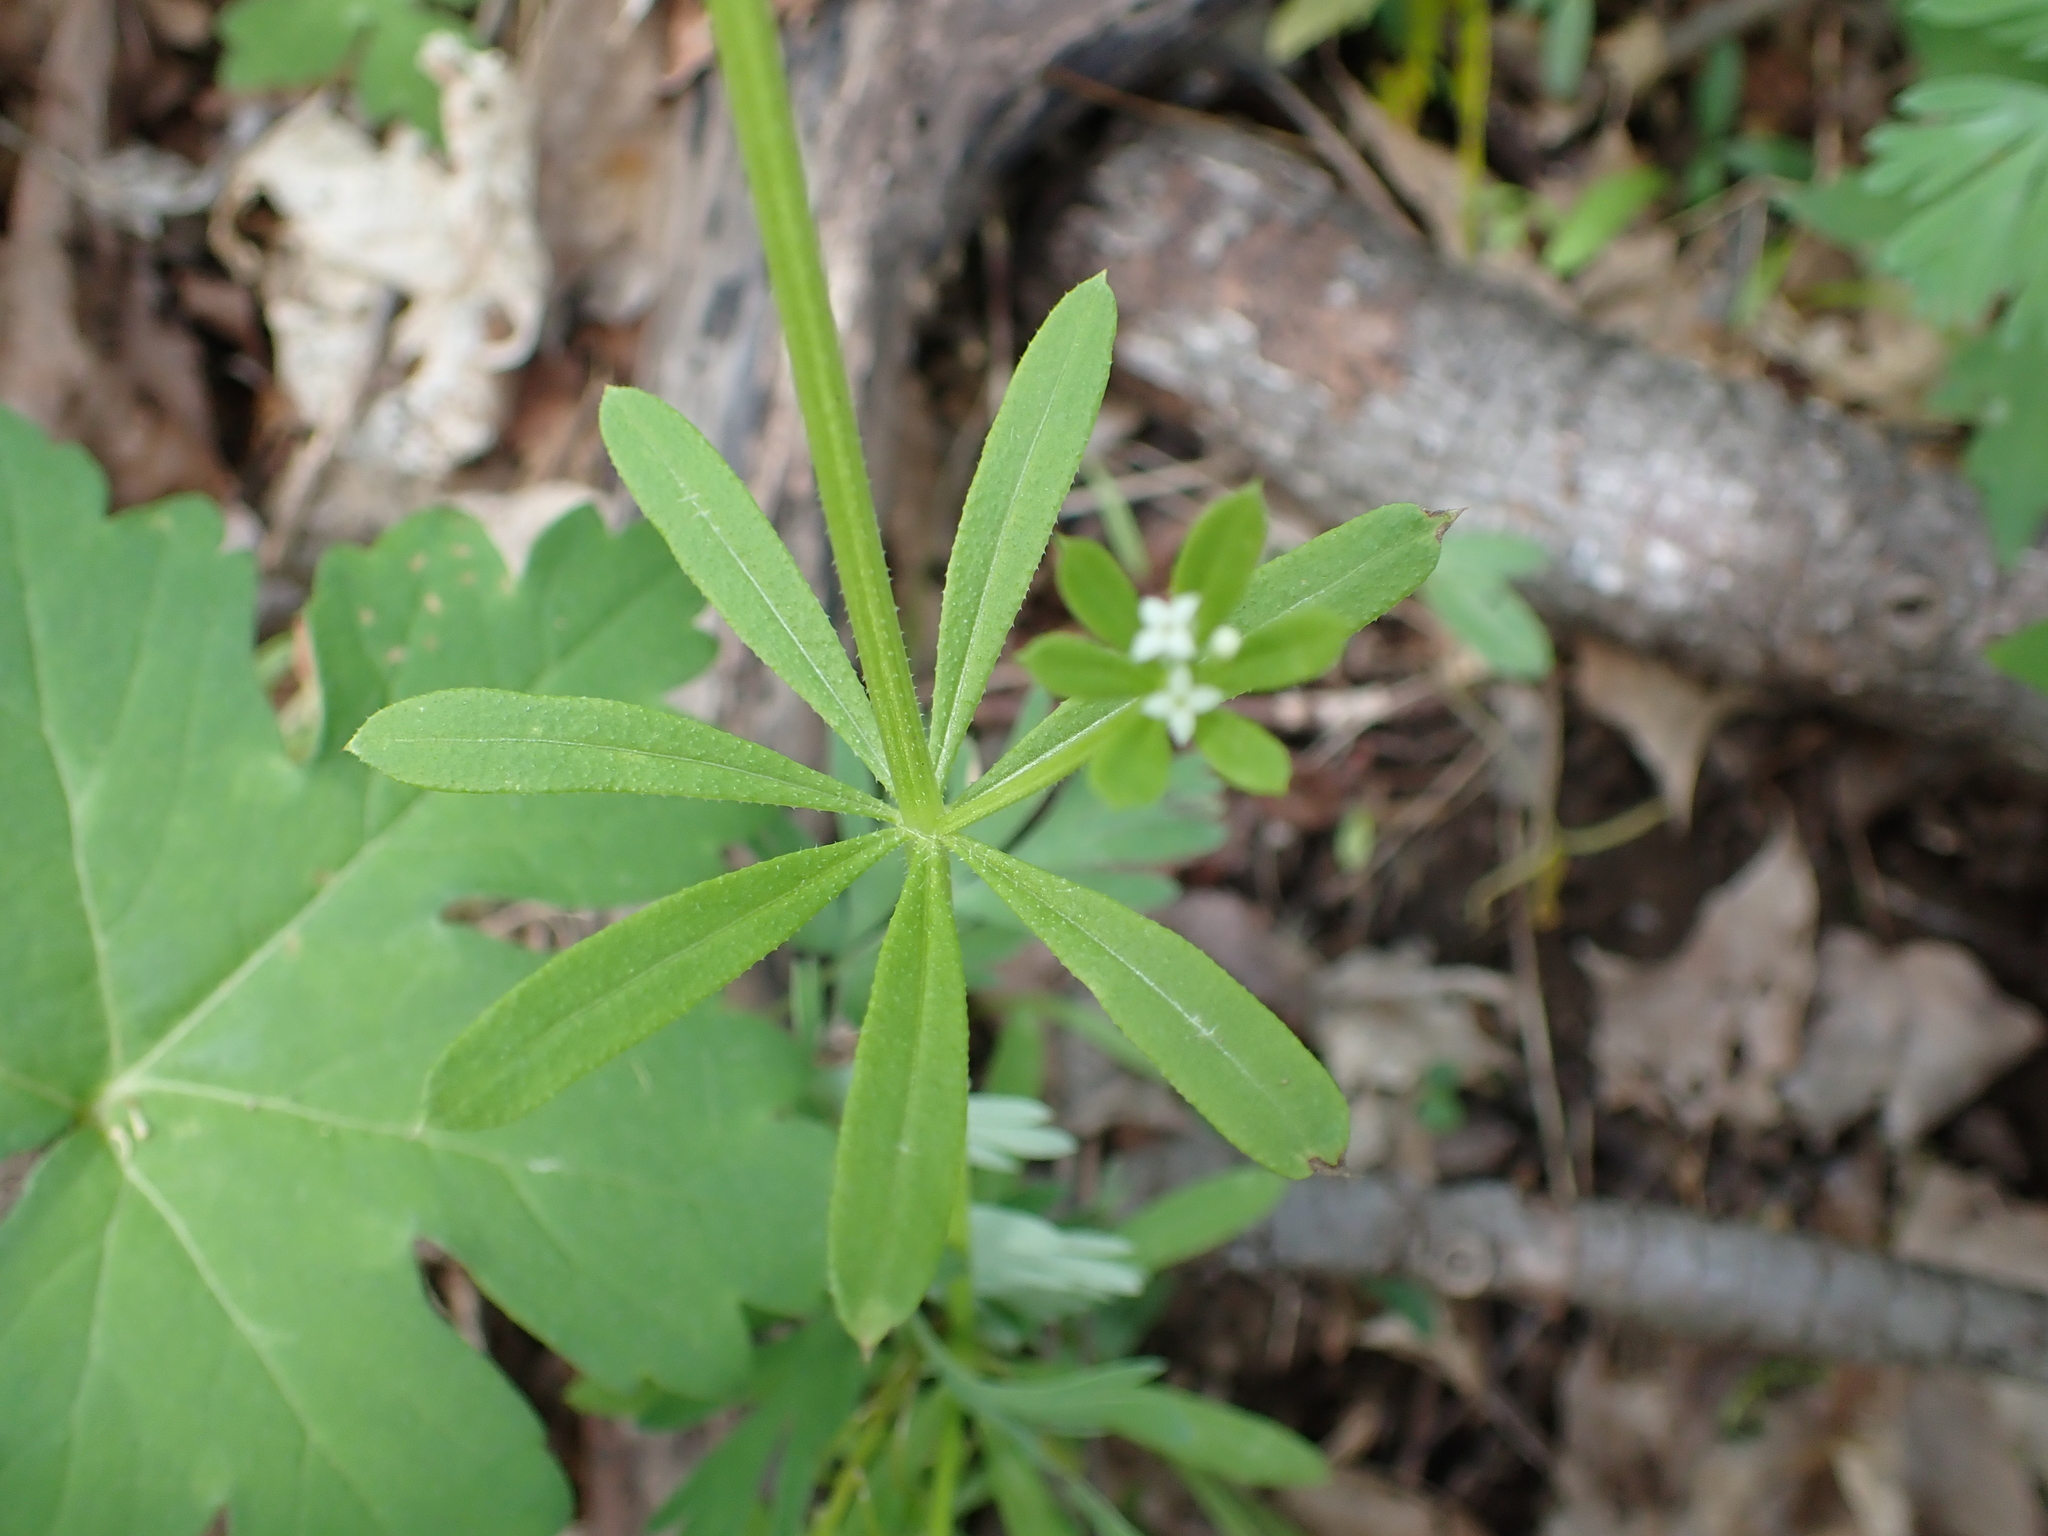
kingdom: Plantae
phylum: Tracheophyta
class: Magnoliopsida
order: Gentianales
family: Rubiaceae
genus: Galium
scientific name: Galium aparine
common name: Cleavers
